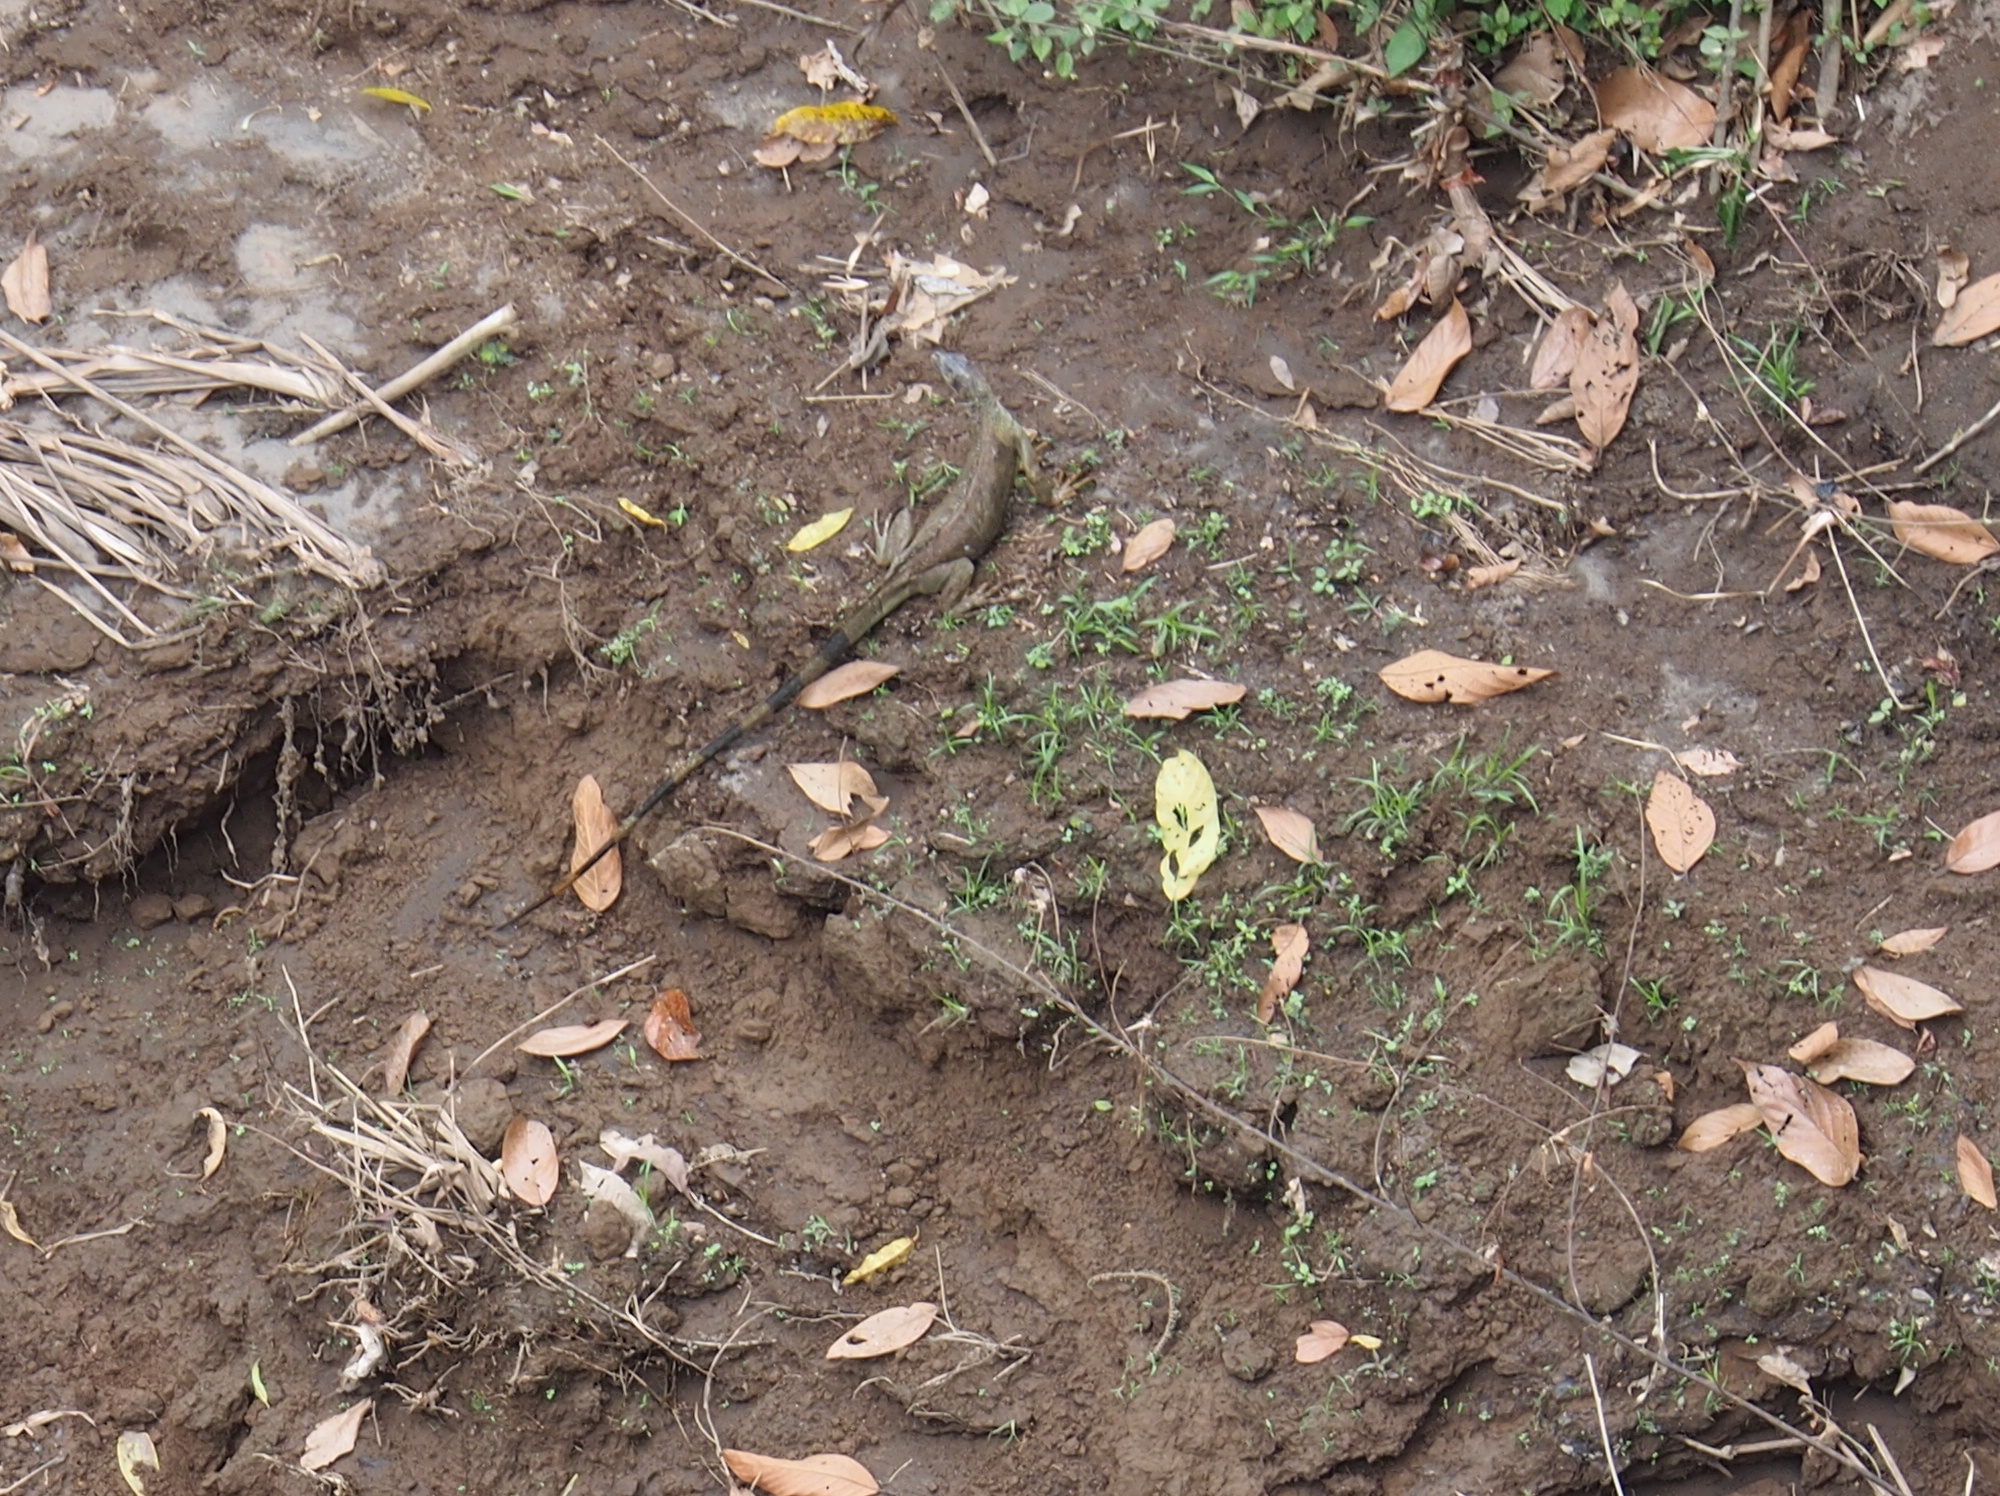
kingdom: Animalia
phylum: Chordata
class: Squamata
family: Iguanidae
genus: Iguana
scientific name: Iguana iguana
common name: Green iguana
